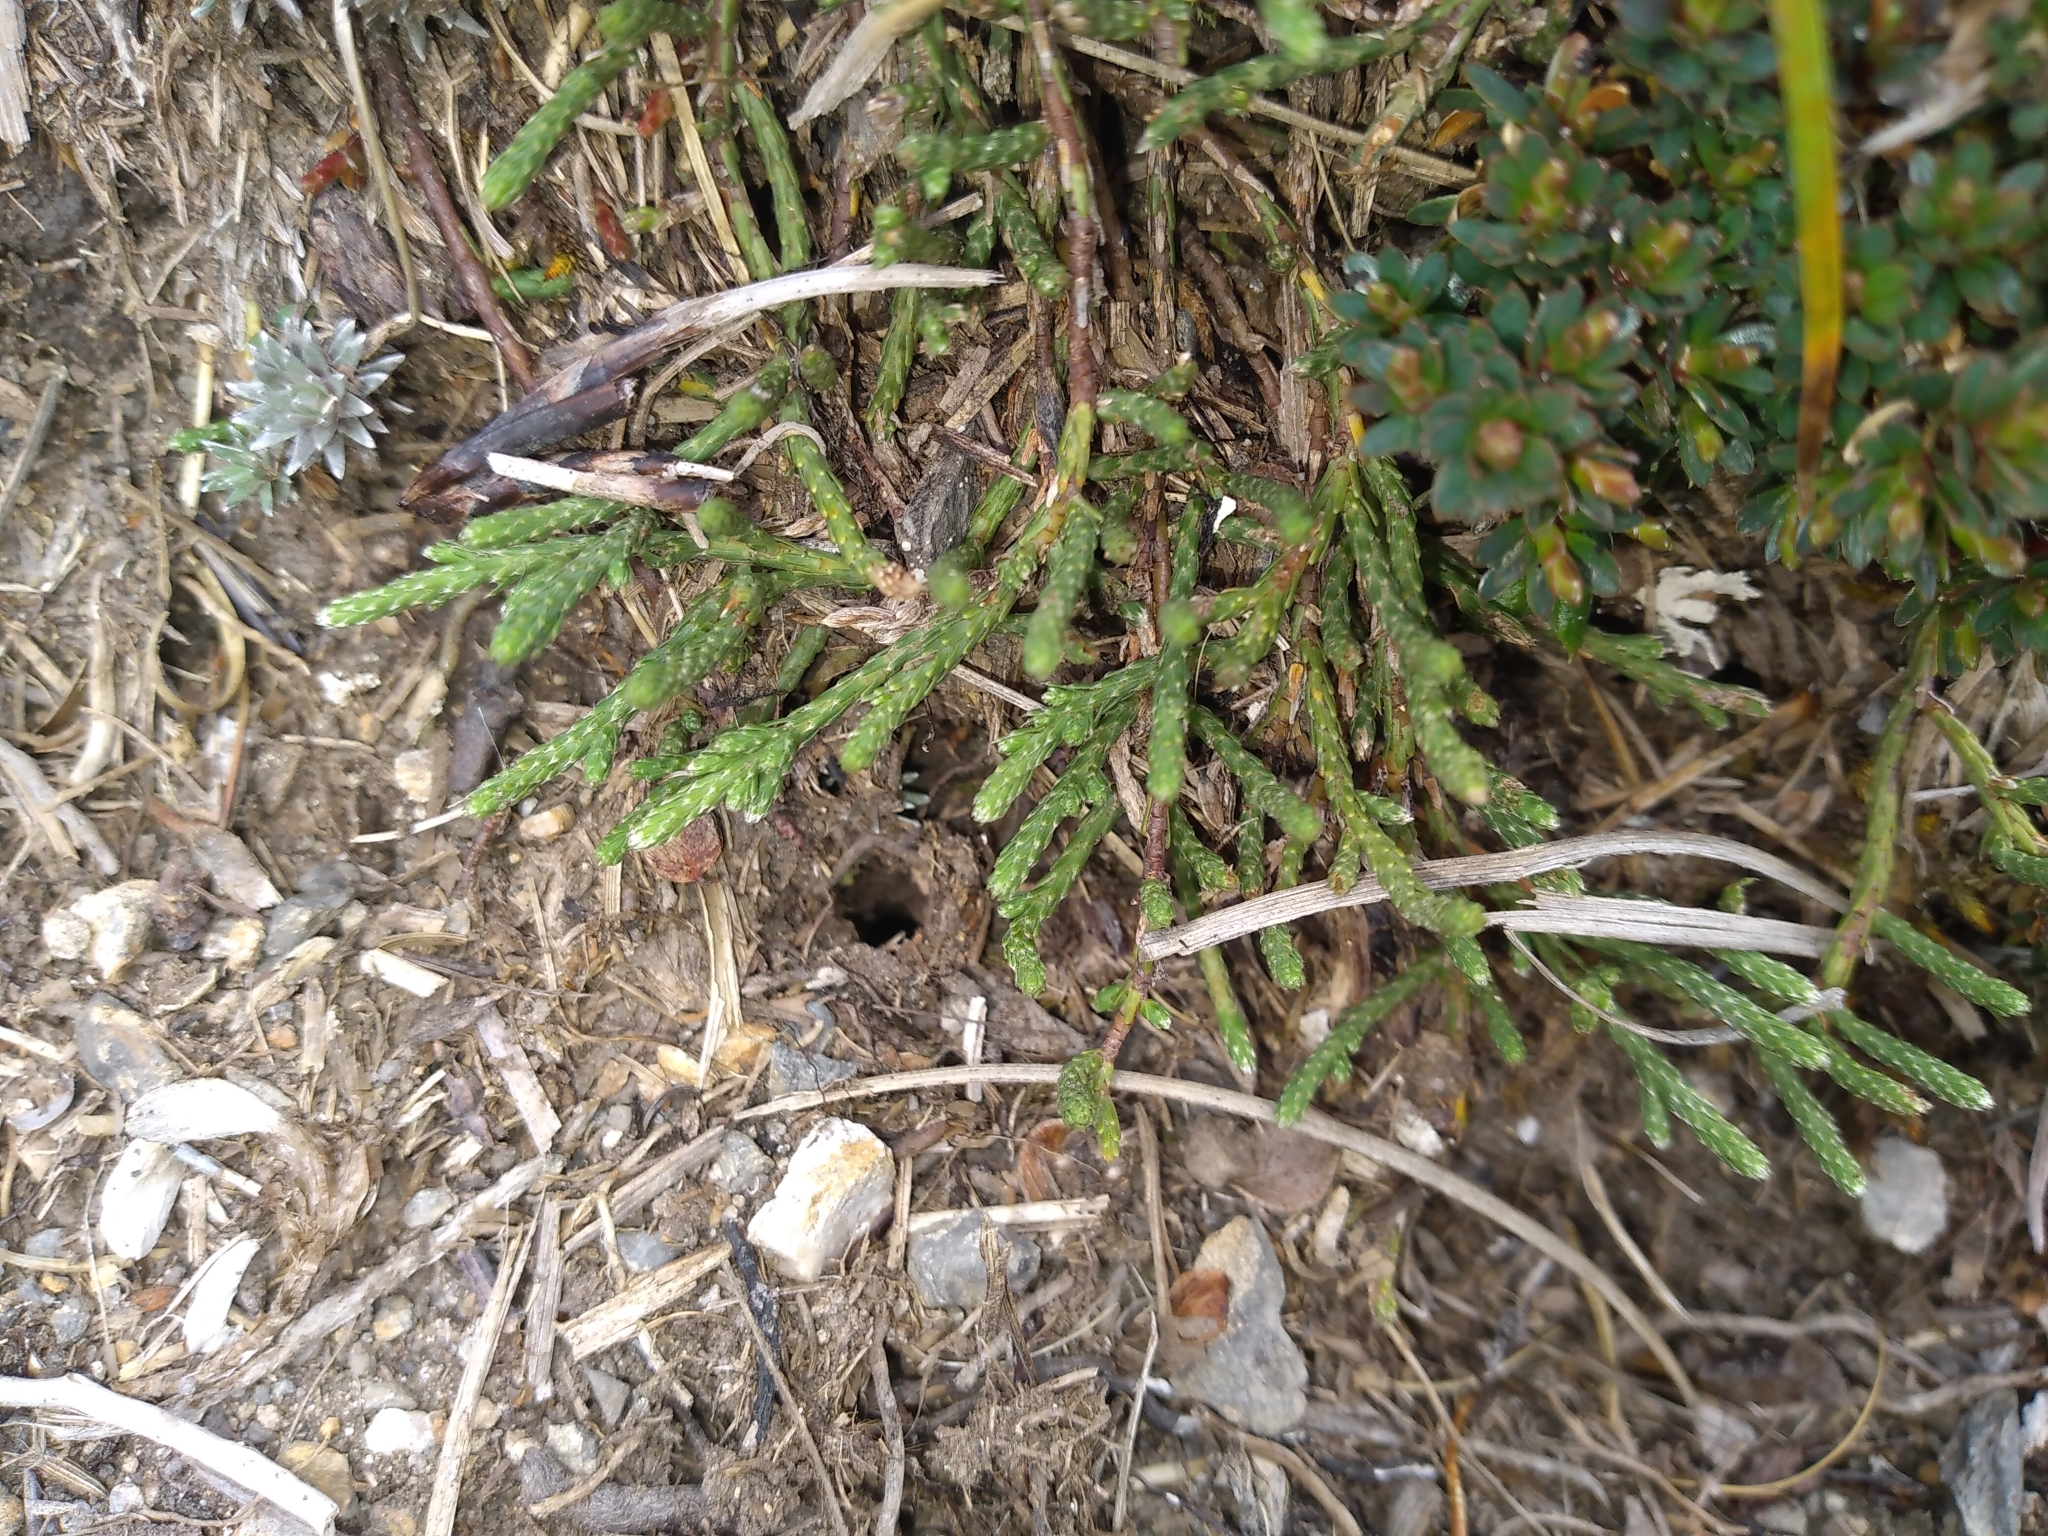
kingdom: Plantae
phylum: Tracheophyta
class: Magnoliopsida
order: Malvales
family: Thymelaeaceae
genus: Kelleria
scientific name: Kelleria dieffenbachii
